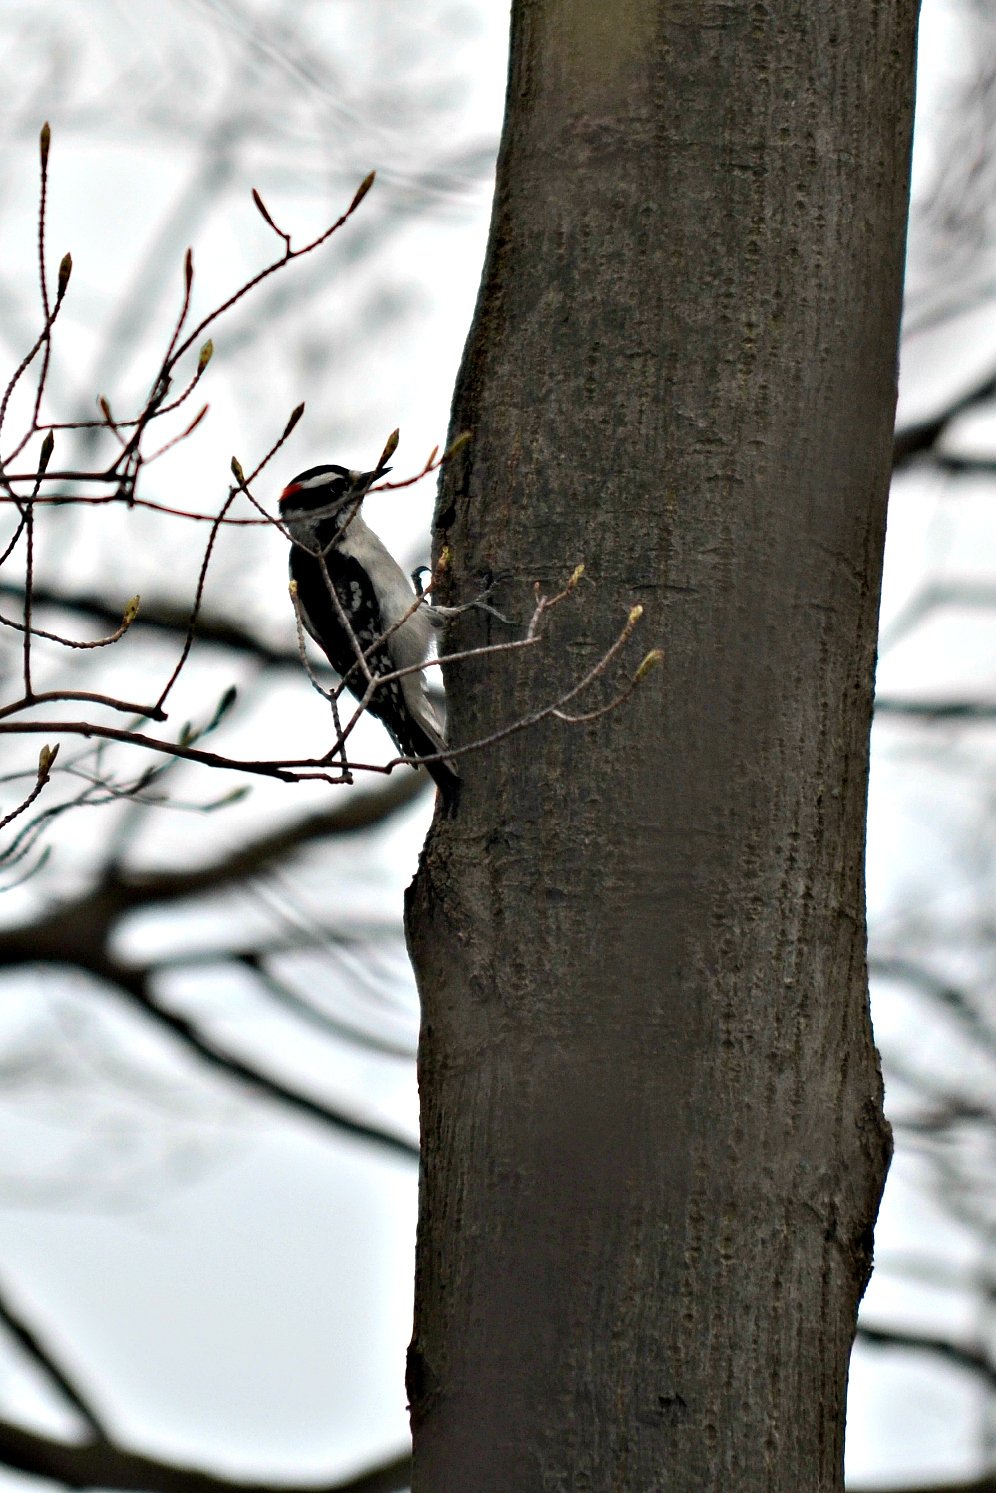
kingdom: Animalia
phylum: Chordata
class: Aves
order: Piciformes
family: Picidae
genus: Dryobates
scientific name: Dryobates pubescens
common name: Downy woodpecker
